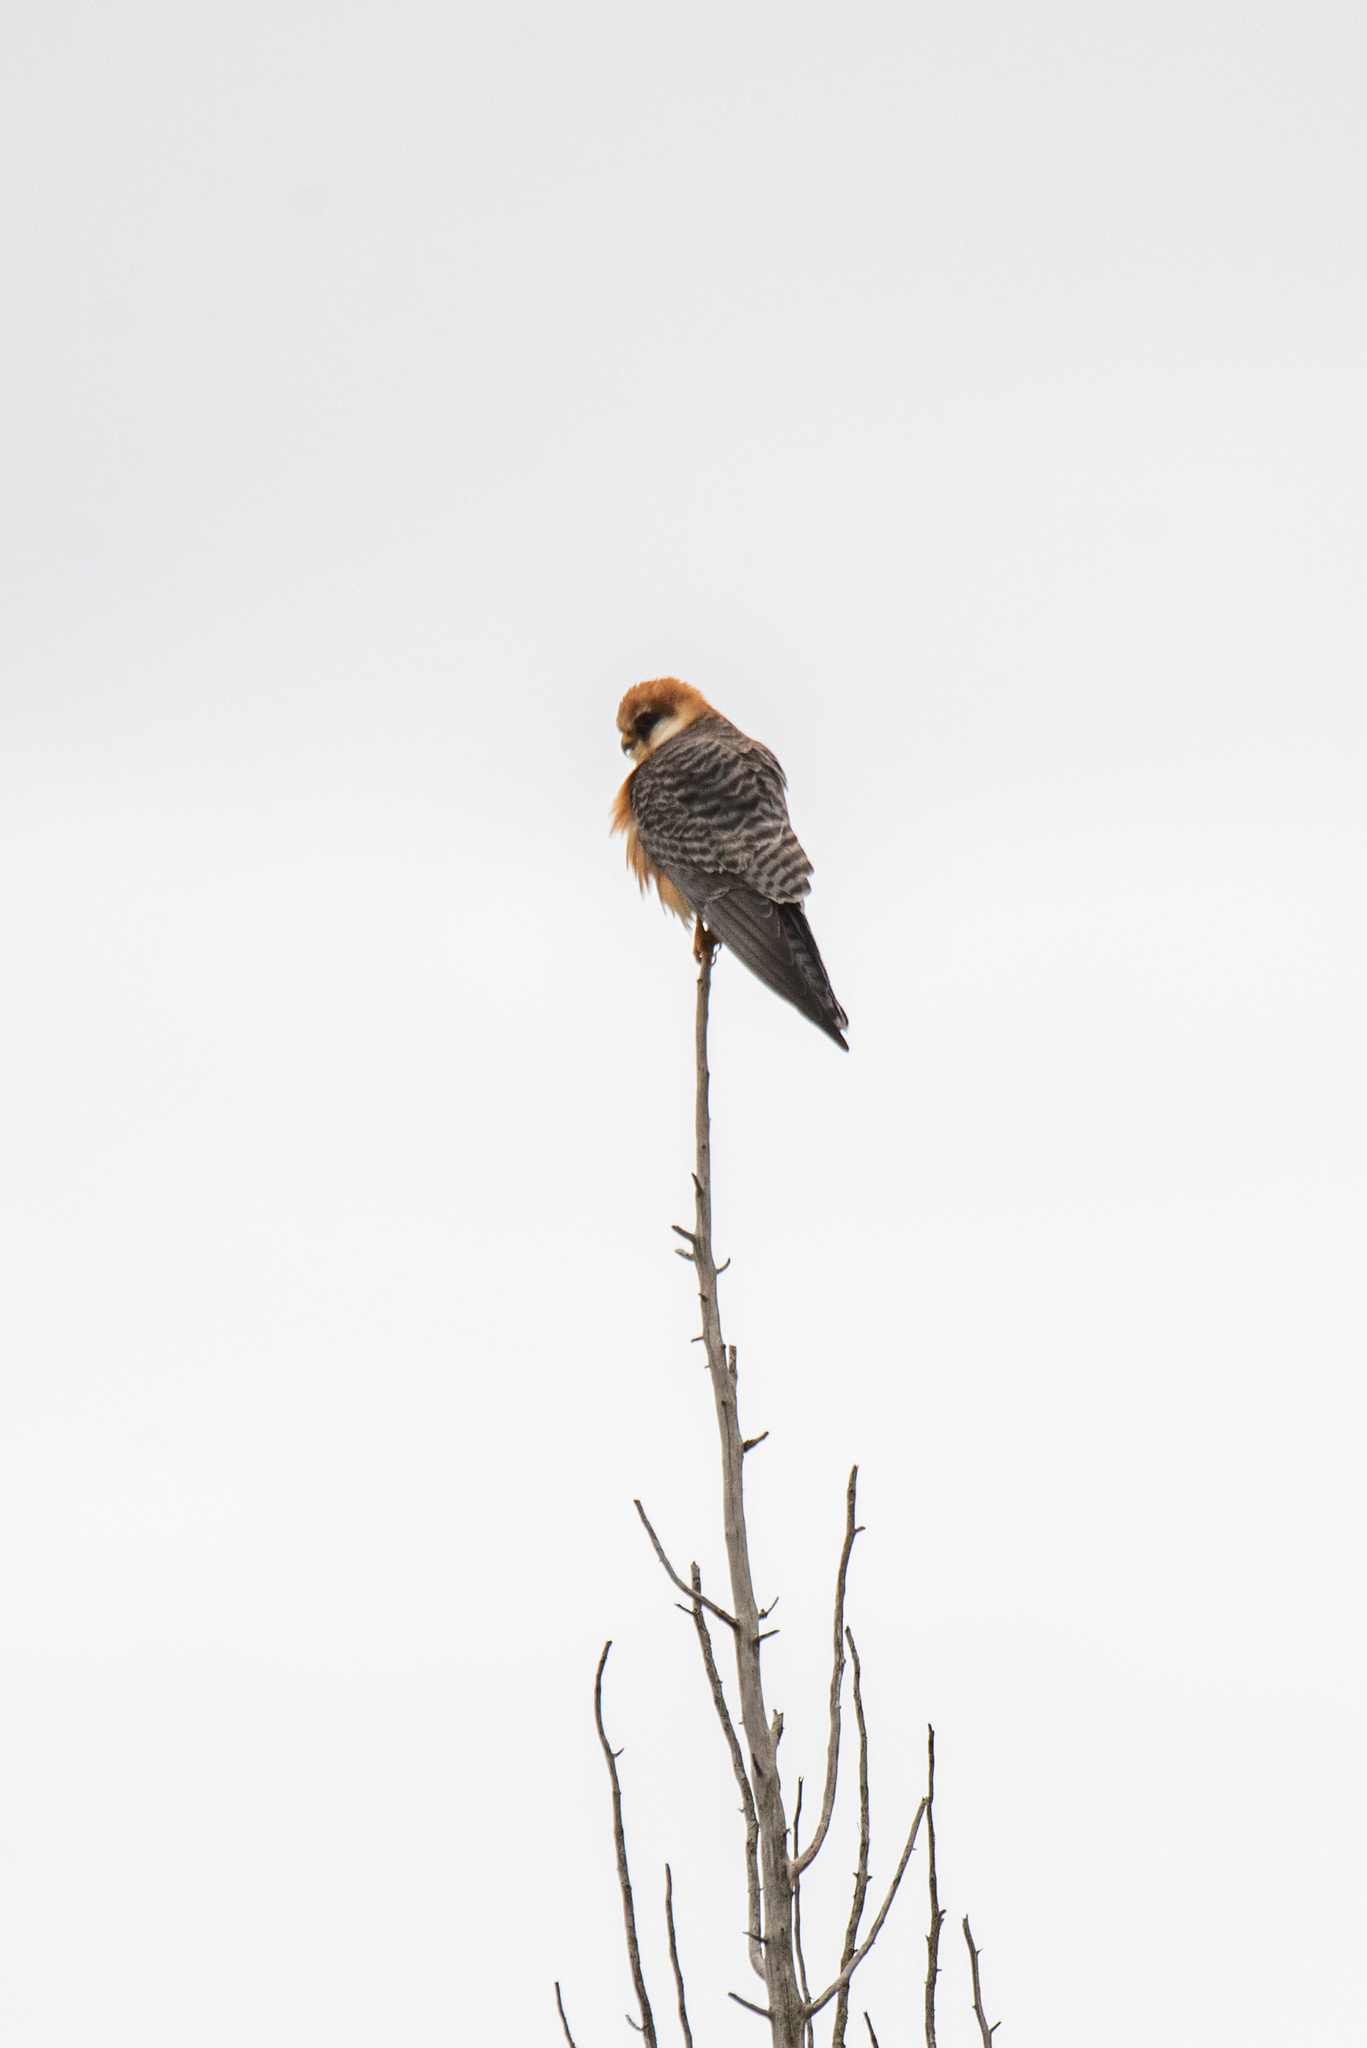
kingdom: Animalia
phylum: Chordata
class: Aves
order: Falconiformes
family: Falconidae
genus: Falco
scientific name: Falco vespertinus
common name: Red-footed falcon
